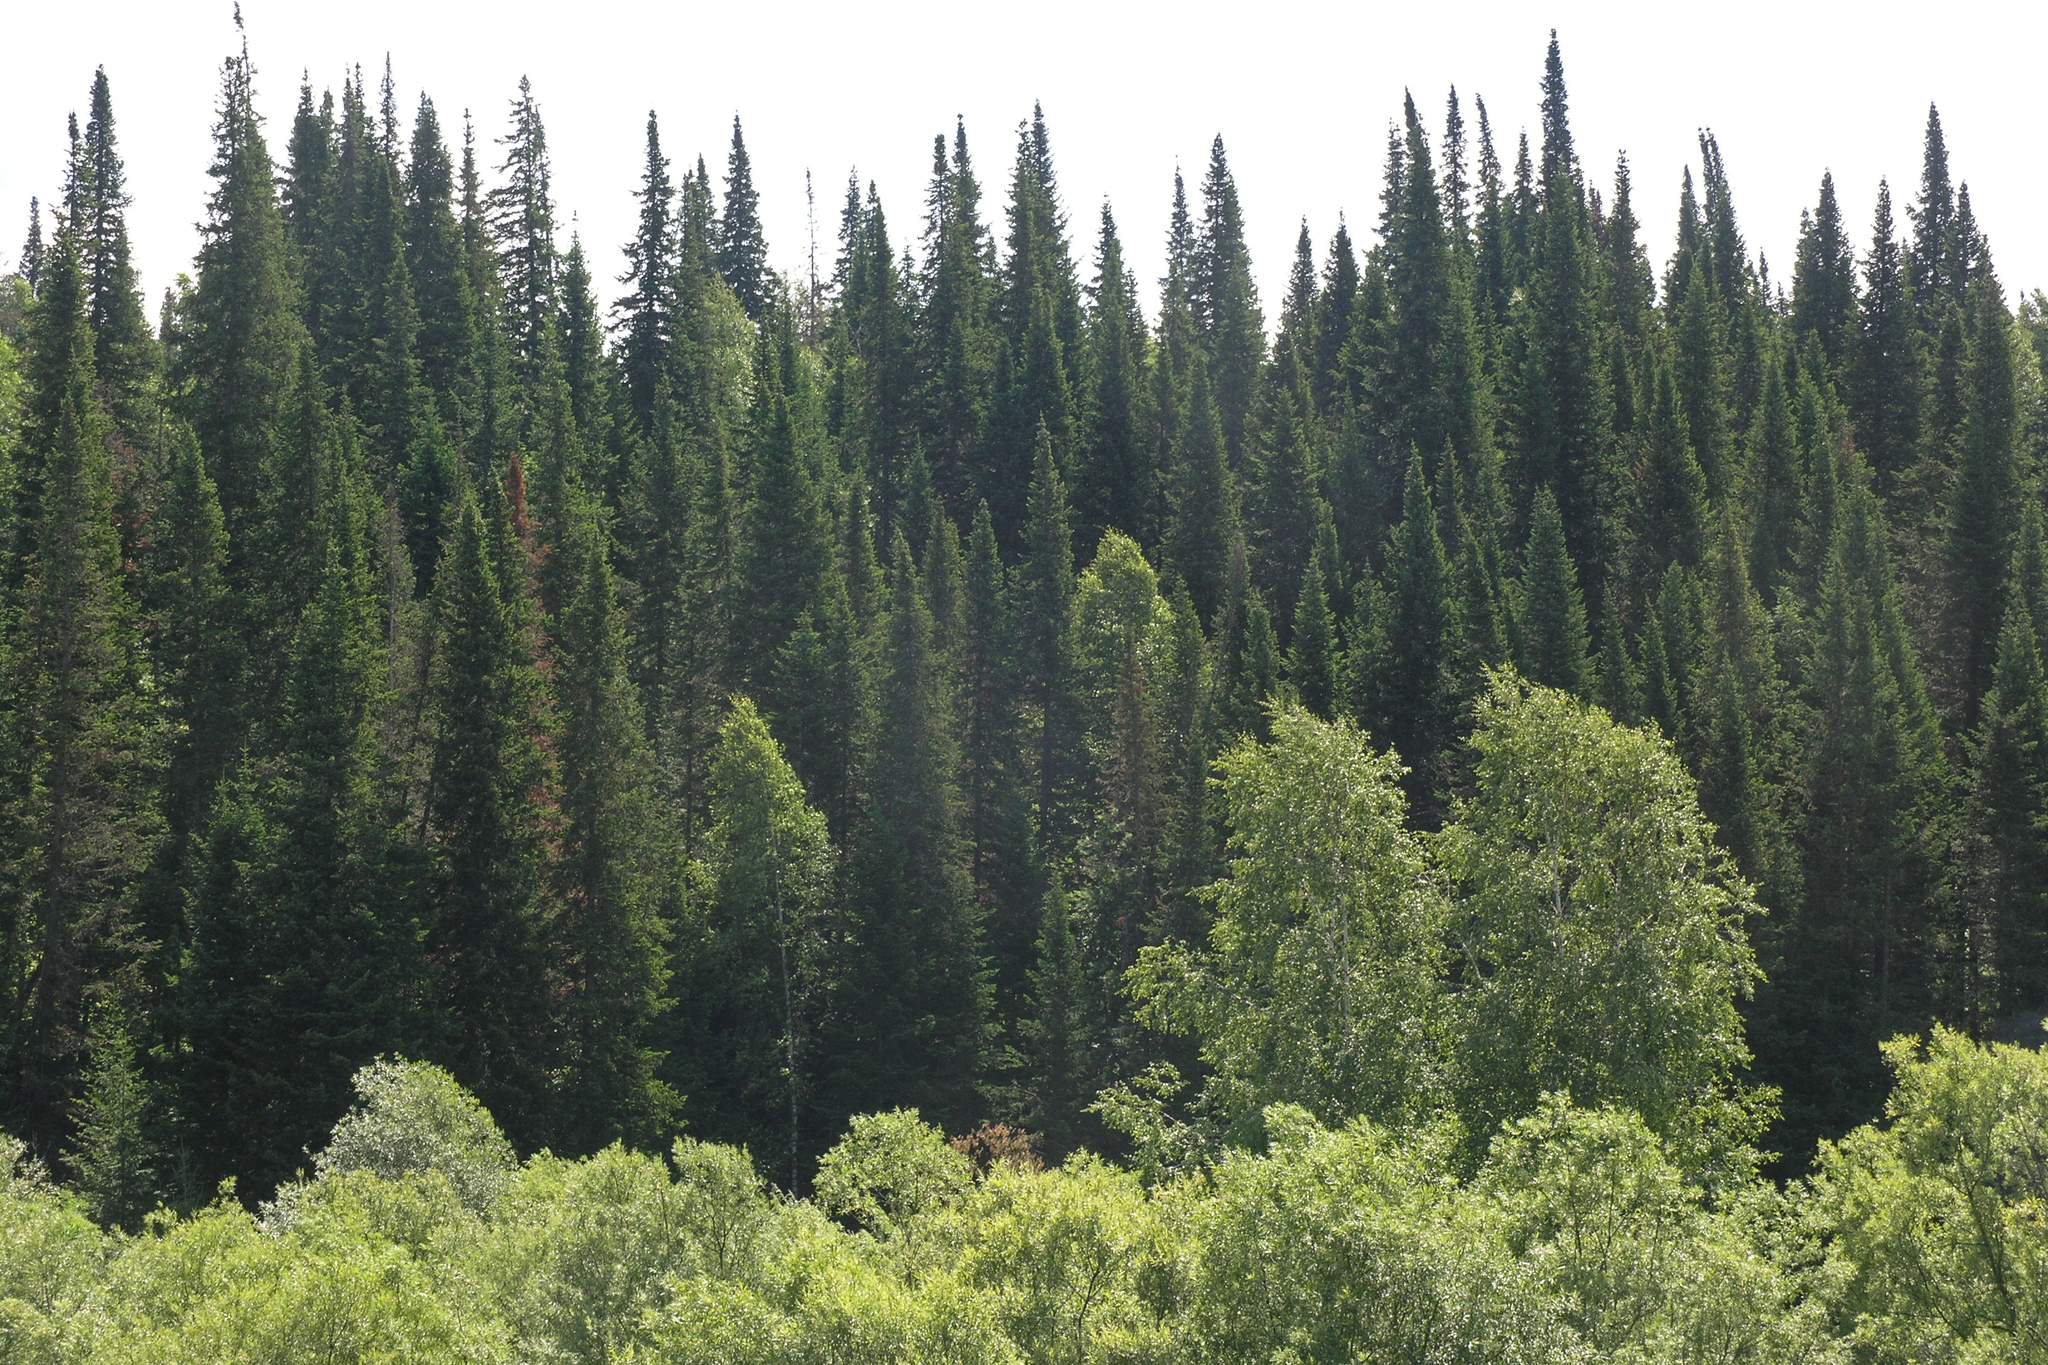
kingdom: Plantae
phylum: Tracheophyta
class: Pinopsida
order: Pinales
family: Pinaceae
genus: Abies
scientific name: Abies sibirica
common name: Siberian fir
